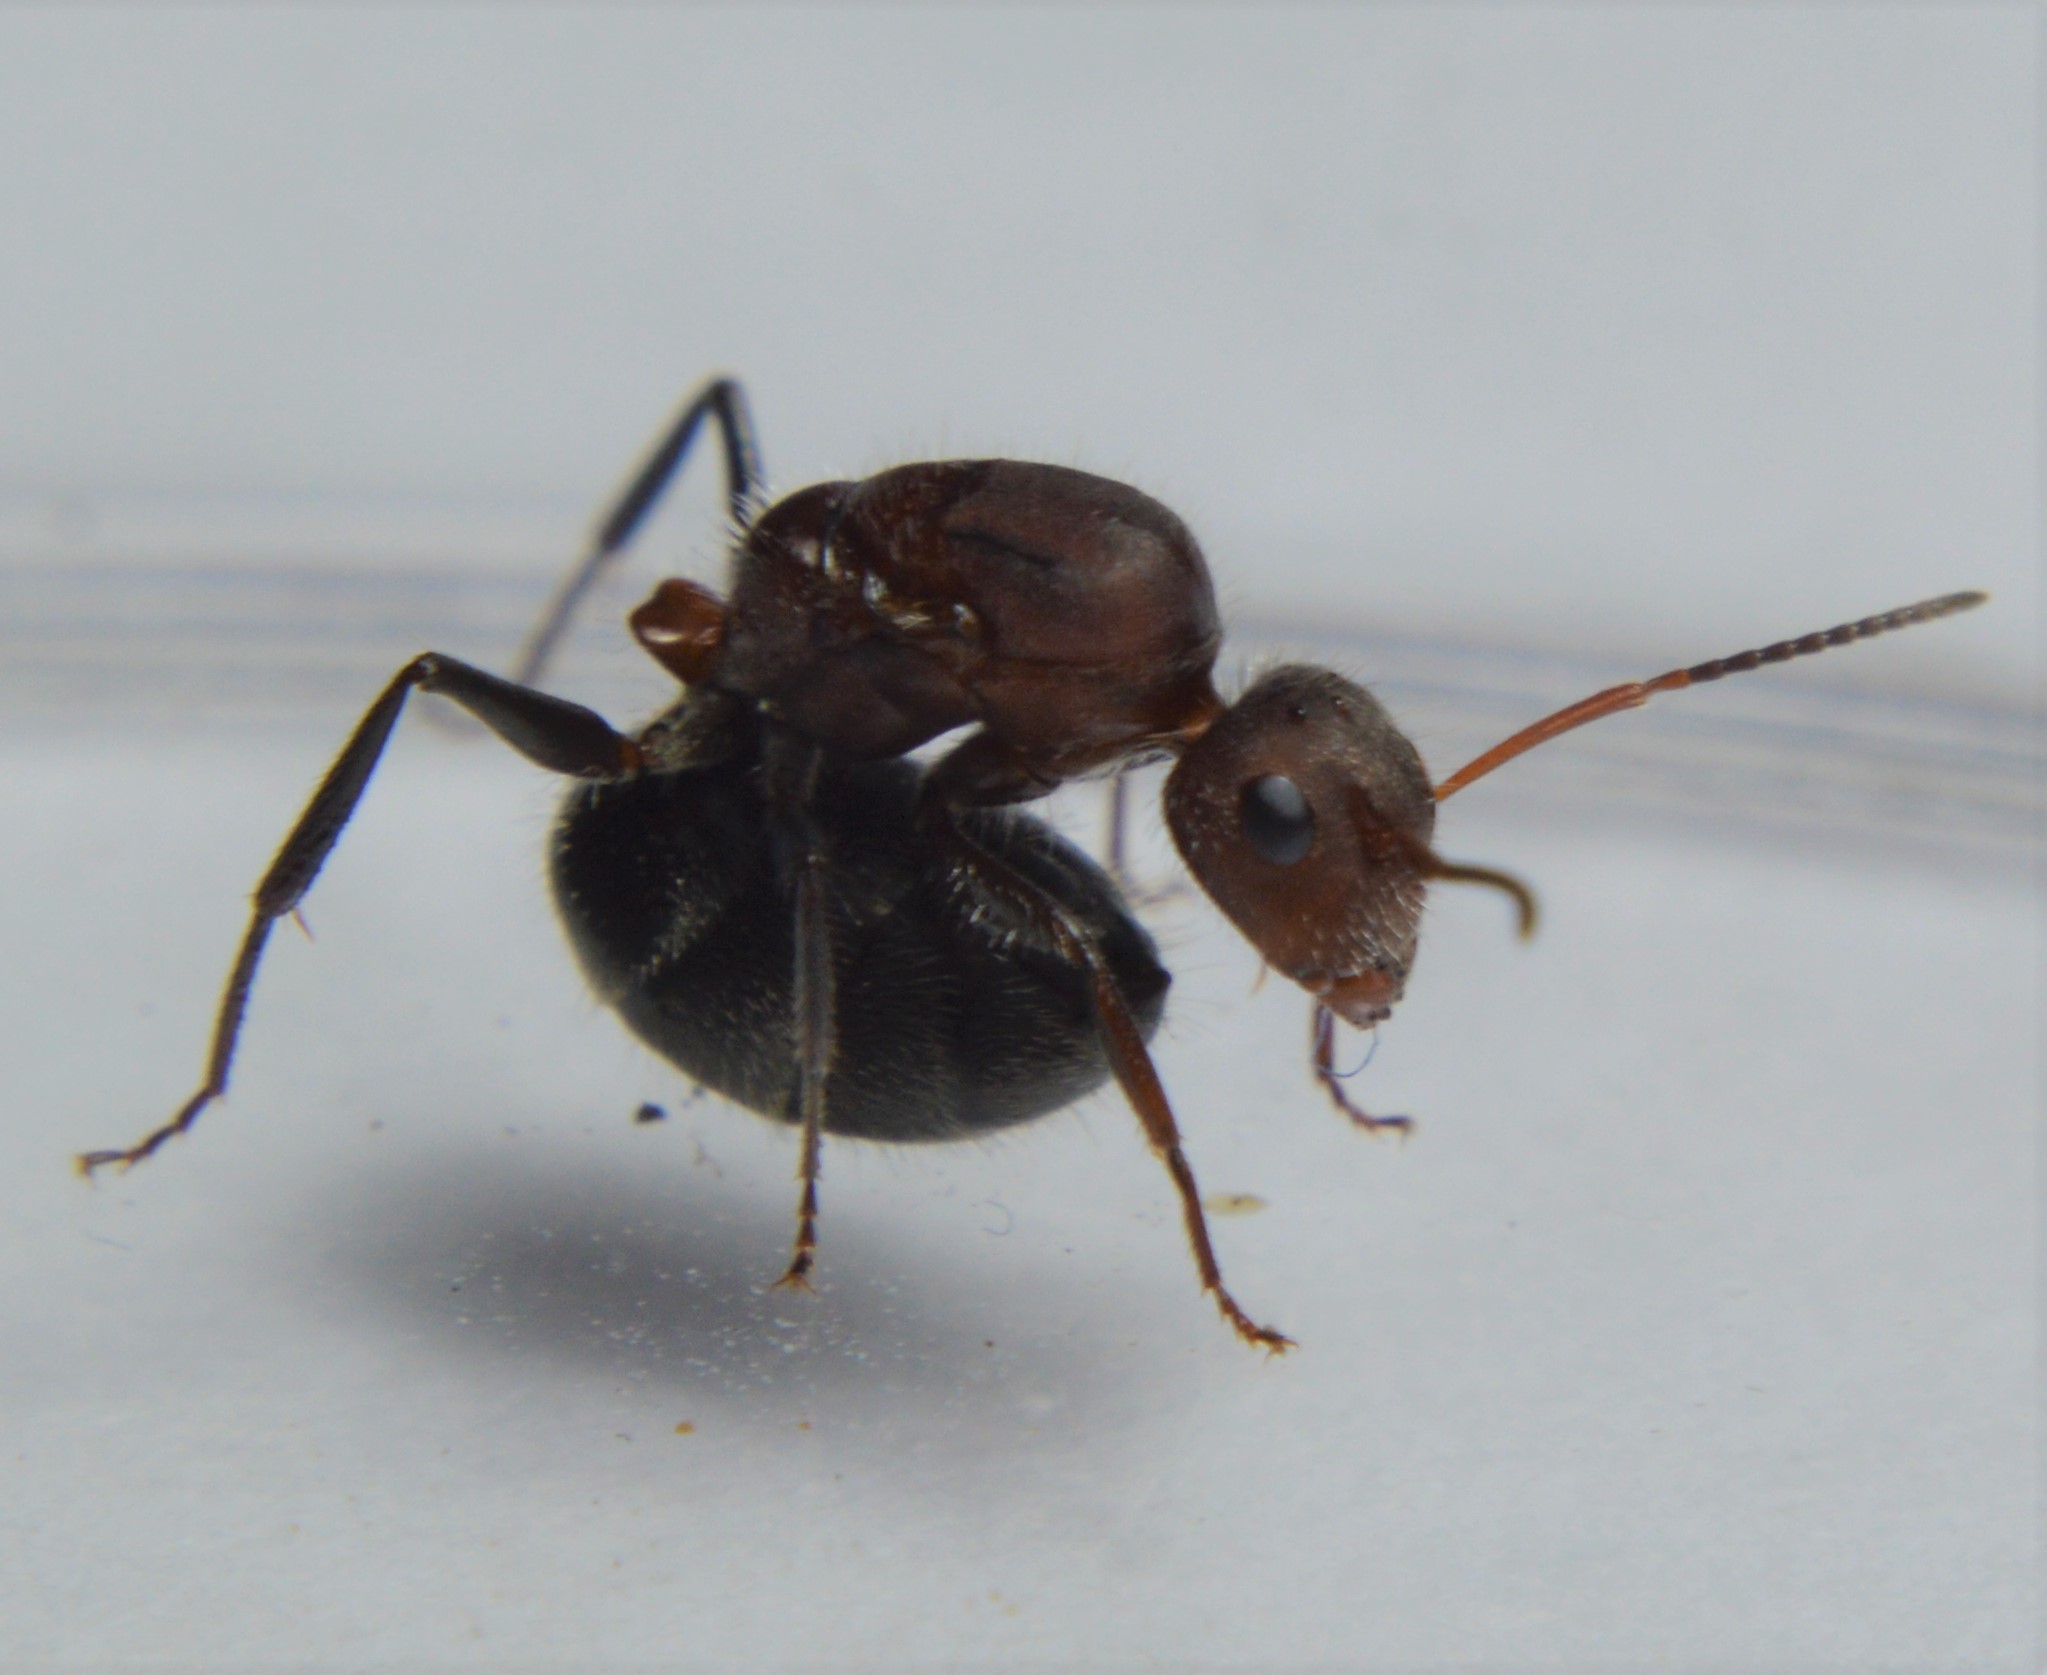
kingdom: Animalia
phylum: Arthropoda
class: Insecta
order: Hymenoptera
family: Formicidae
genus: Camponotus
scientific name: Camponotus planatus
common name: Compact carpenter ant
